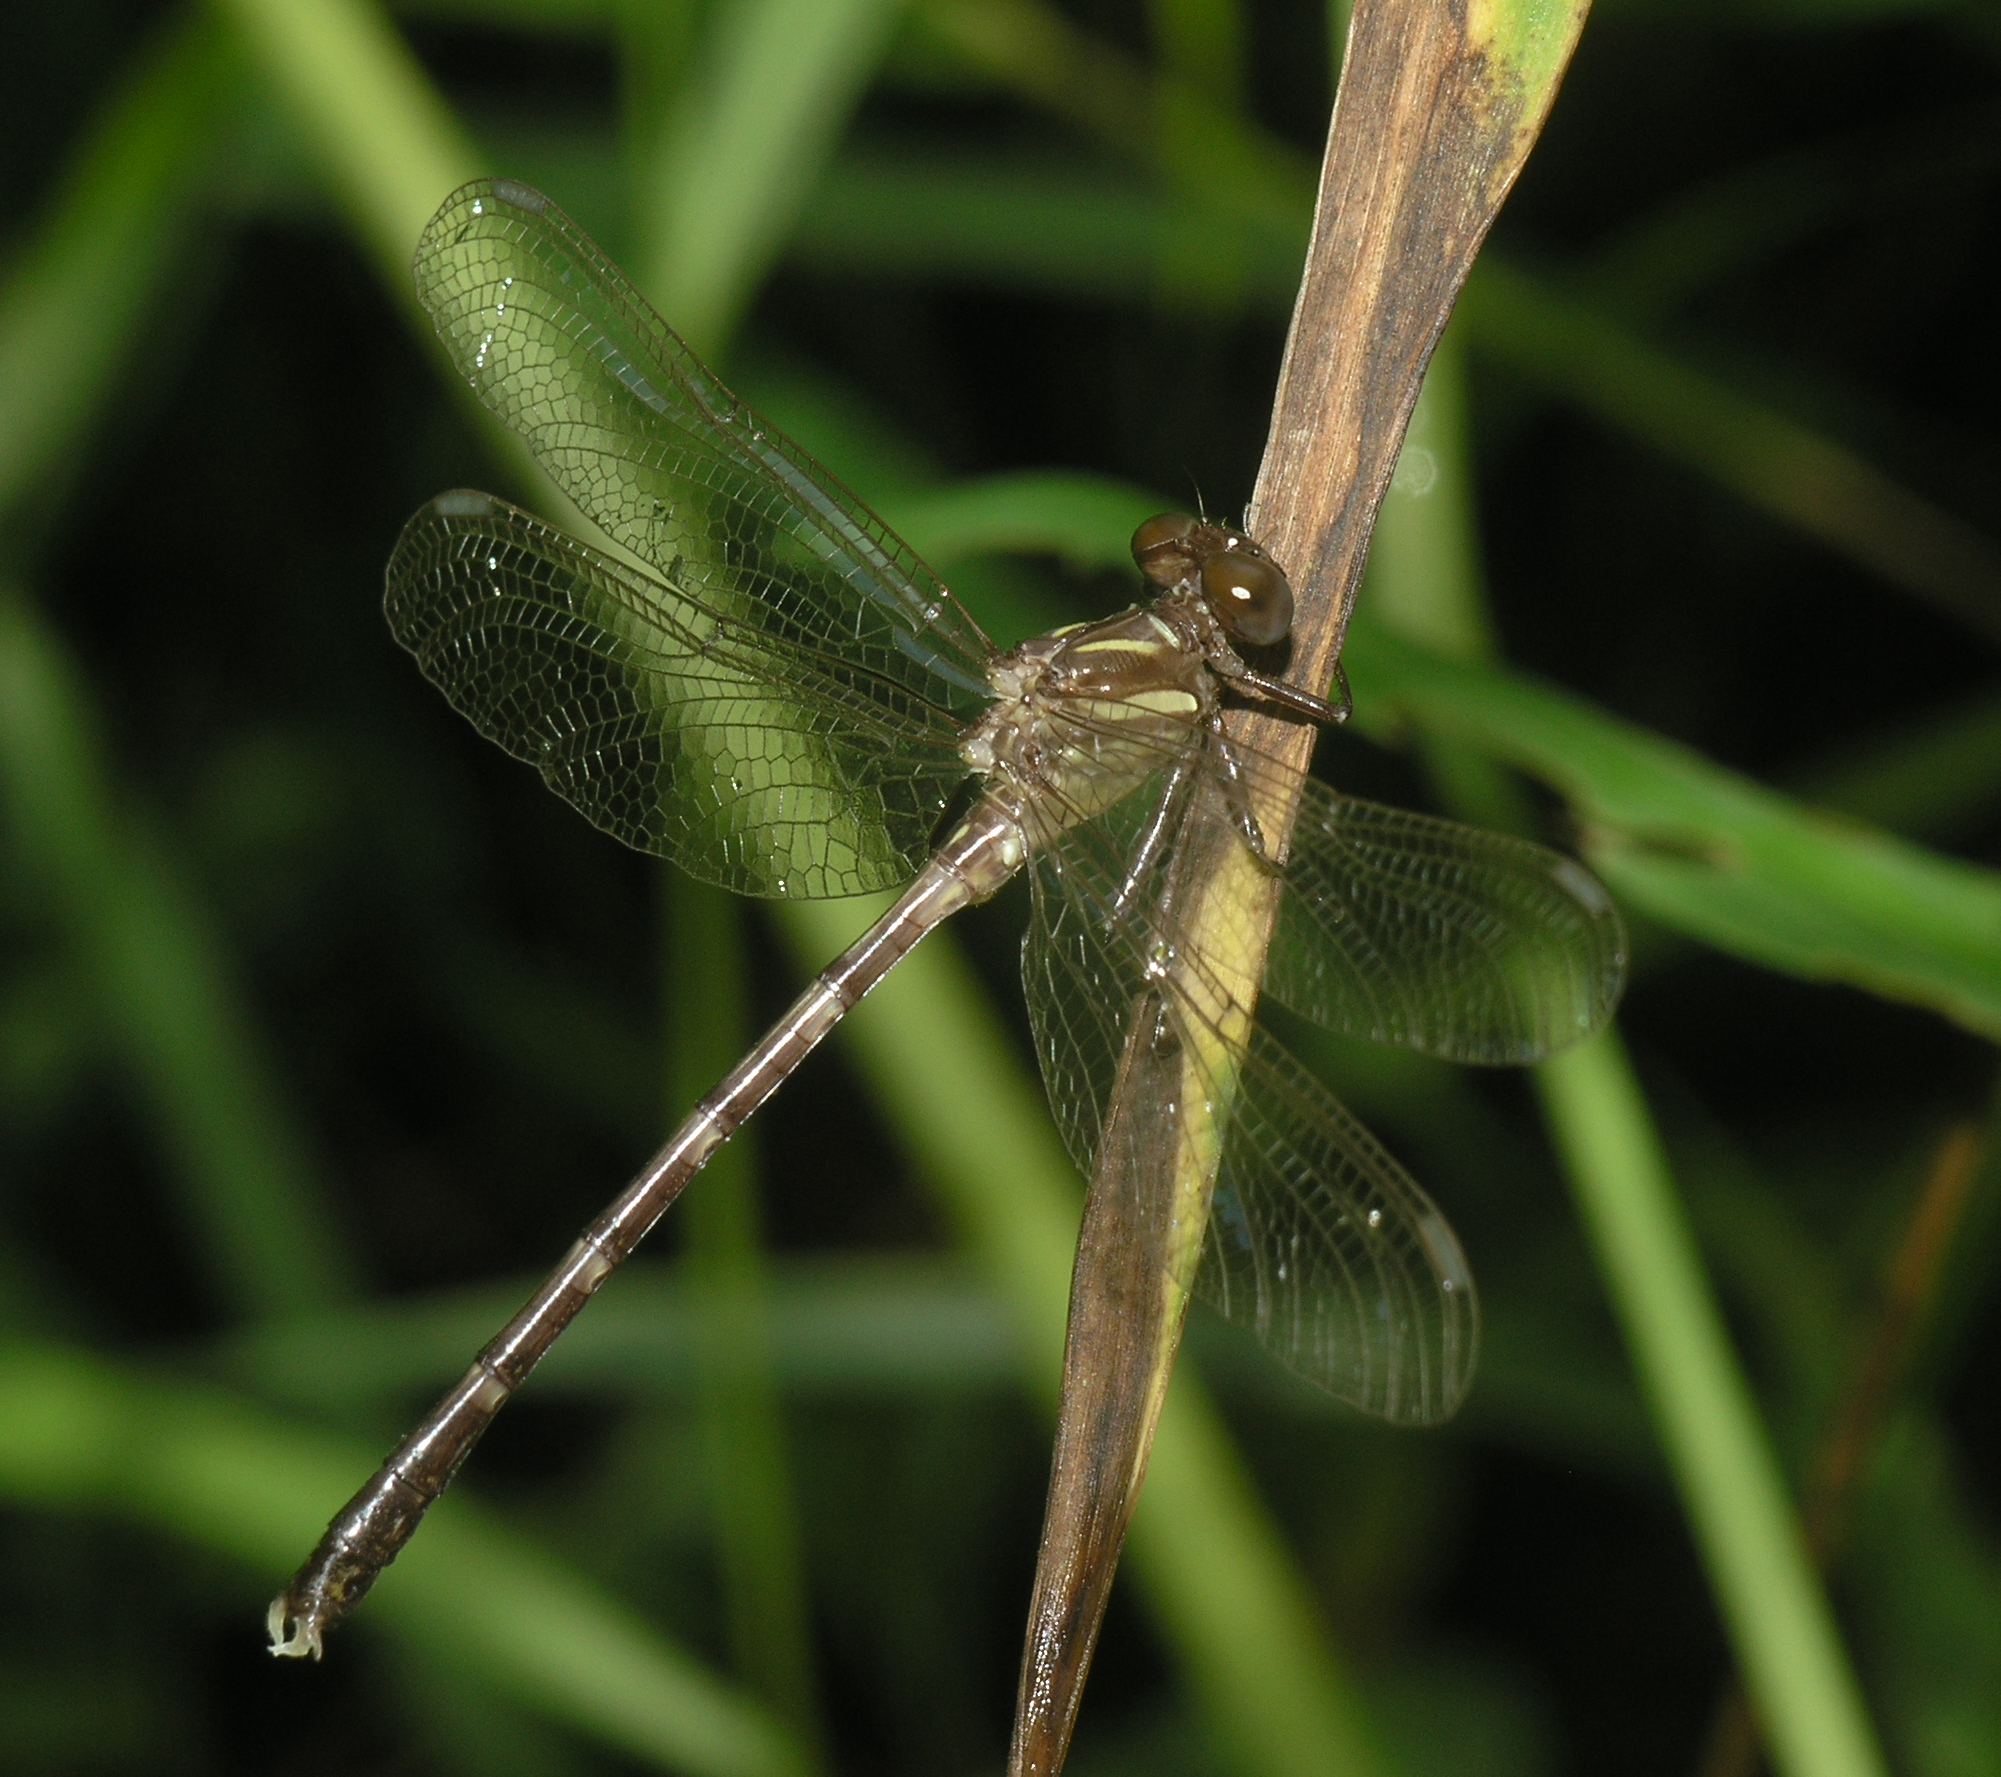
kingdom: Animalia
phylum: Arthropoda
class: Insecta
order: Odonata
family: Gomphidae
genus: Heliogomphus
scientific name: Heliogomphus chaoi
